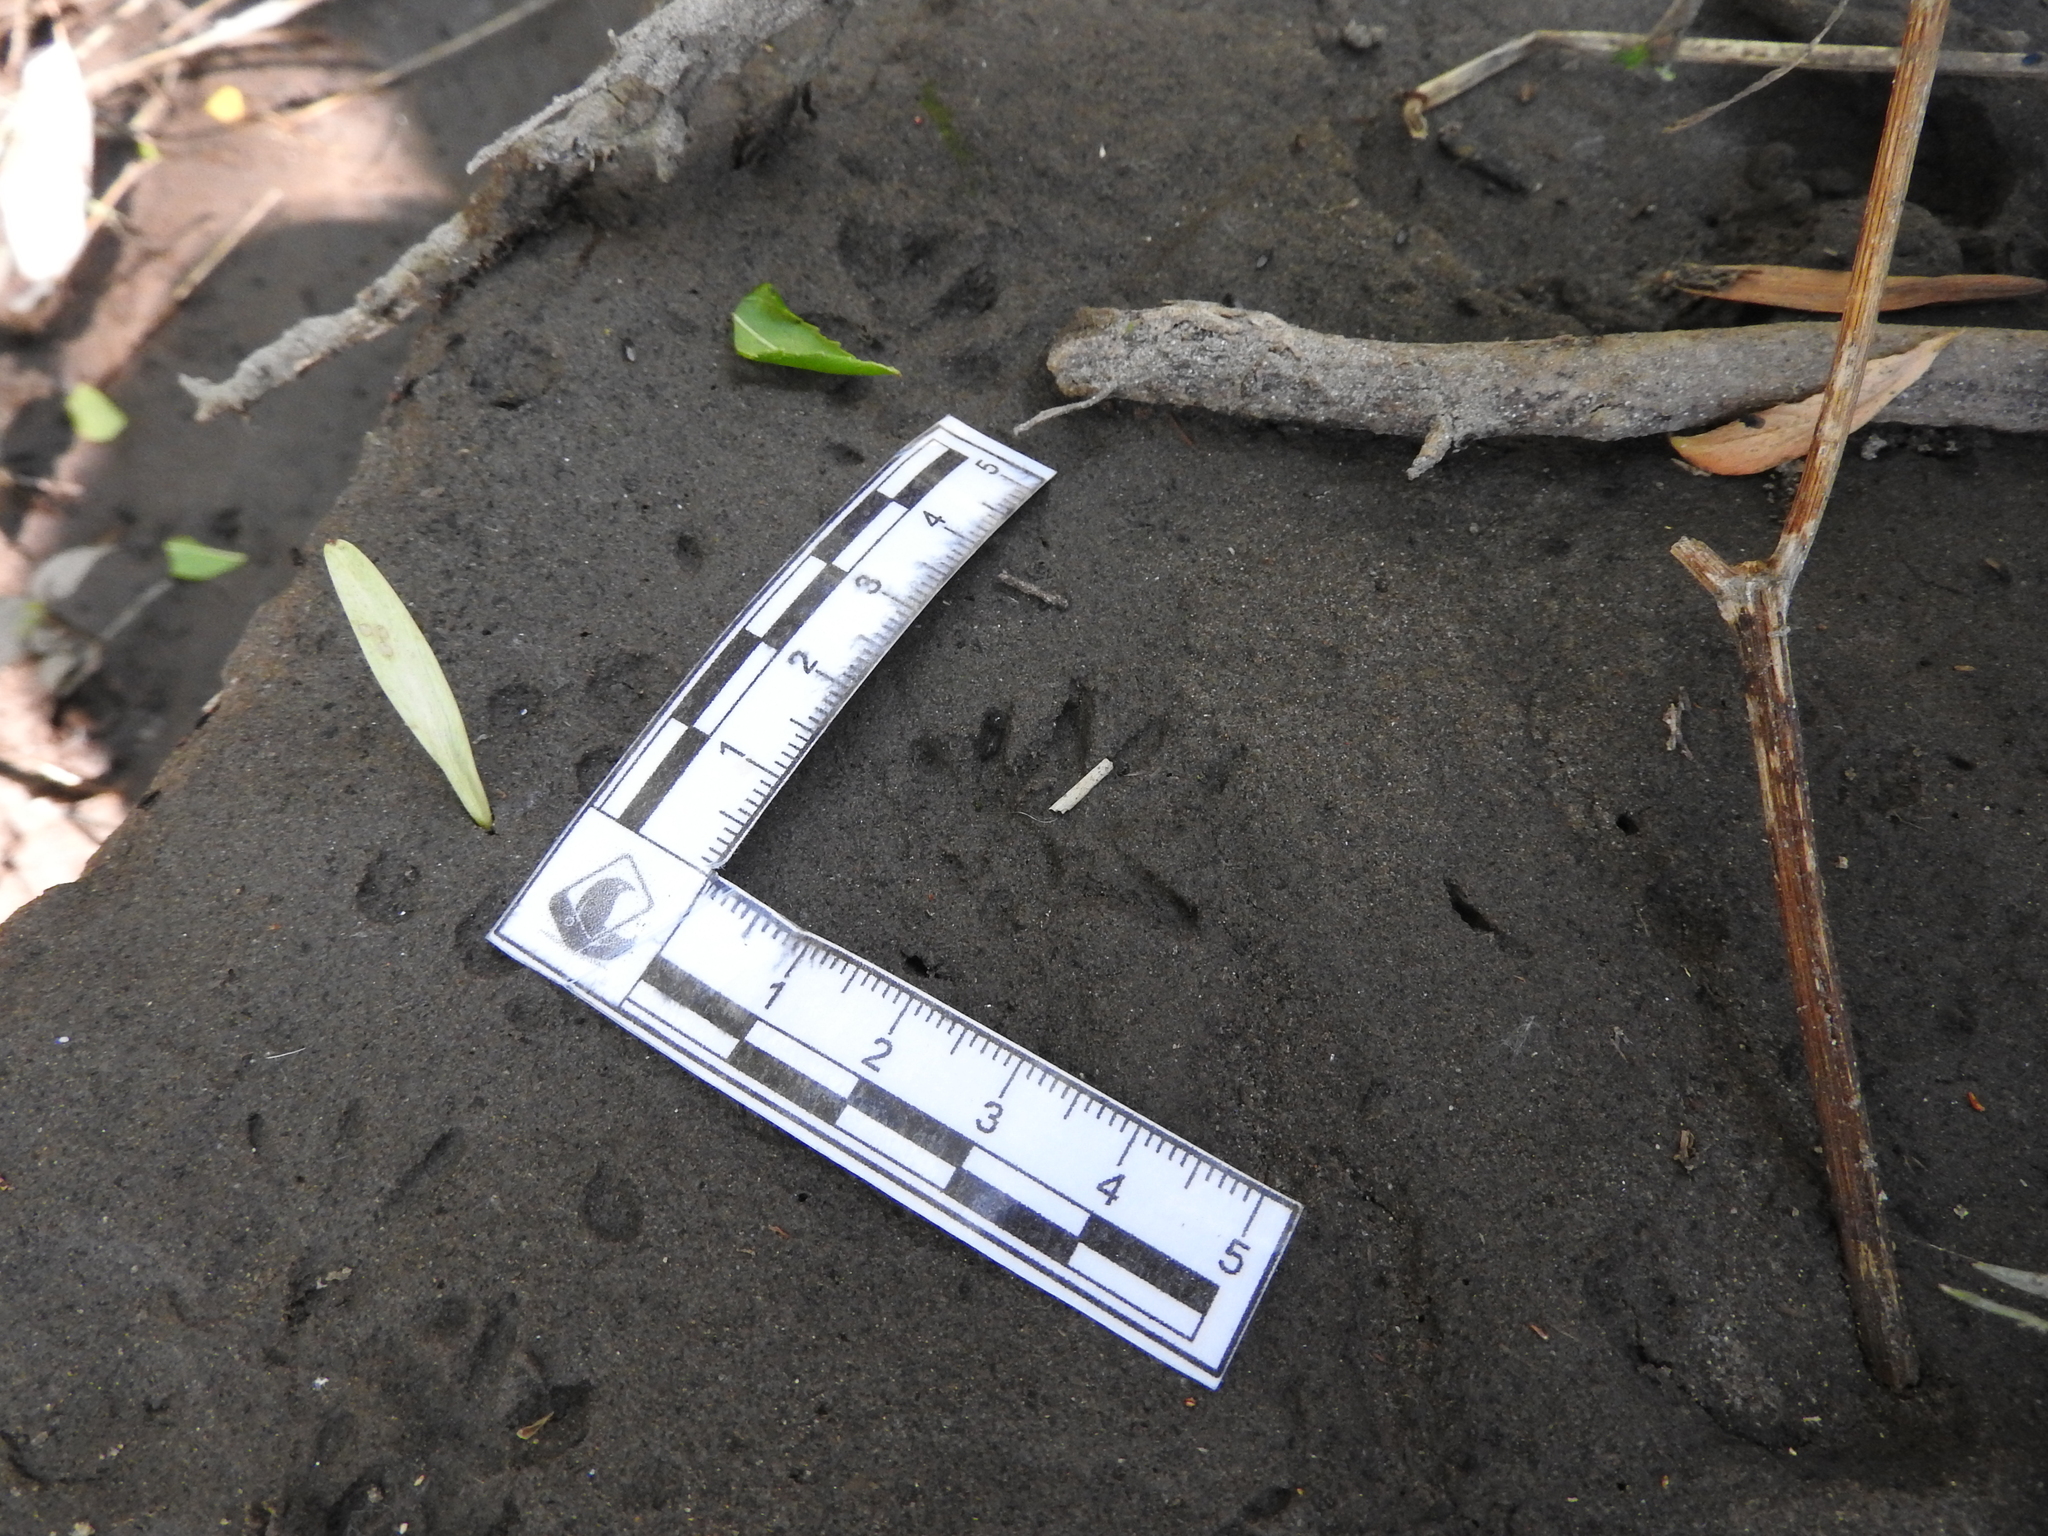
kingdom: Animalia
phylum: Chordata
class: Mammalia
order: Didelphimorphia
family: Didelphidae
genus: Didelphis
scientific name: Didelphis virginiana
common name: Virginia opossum
